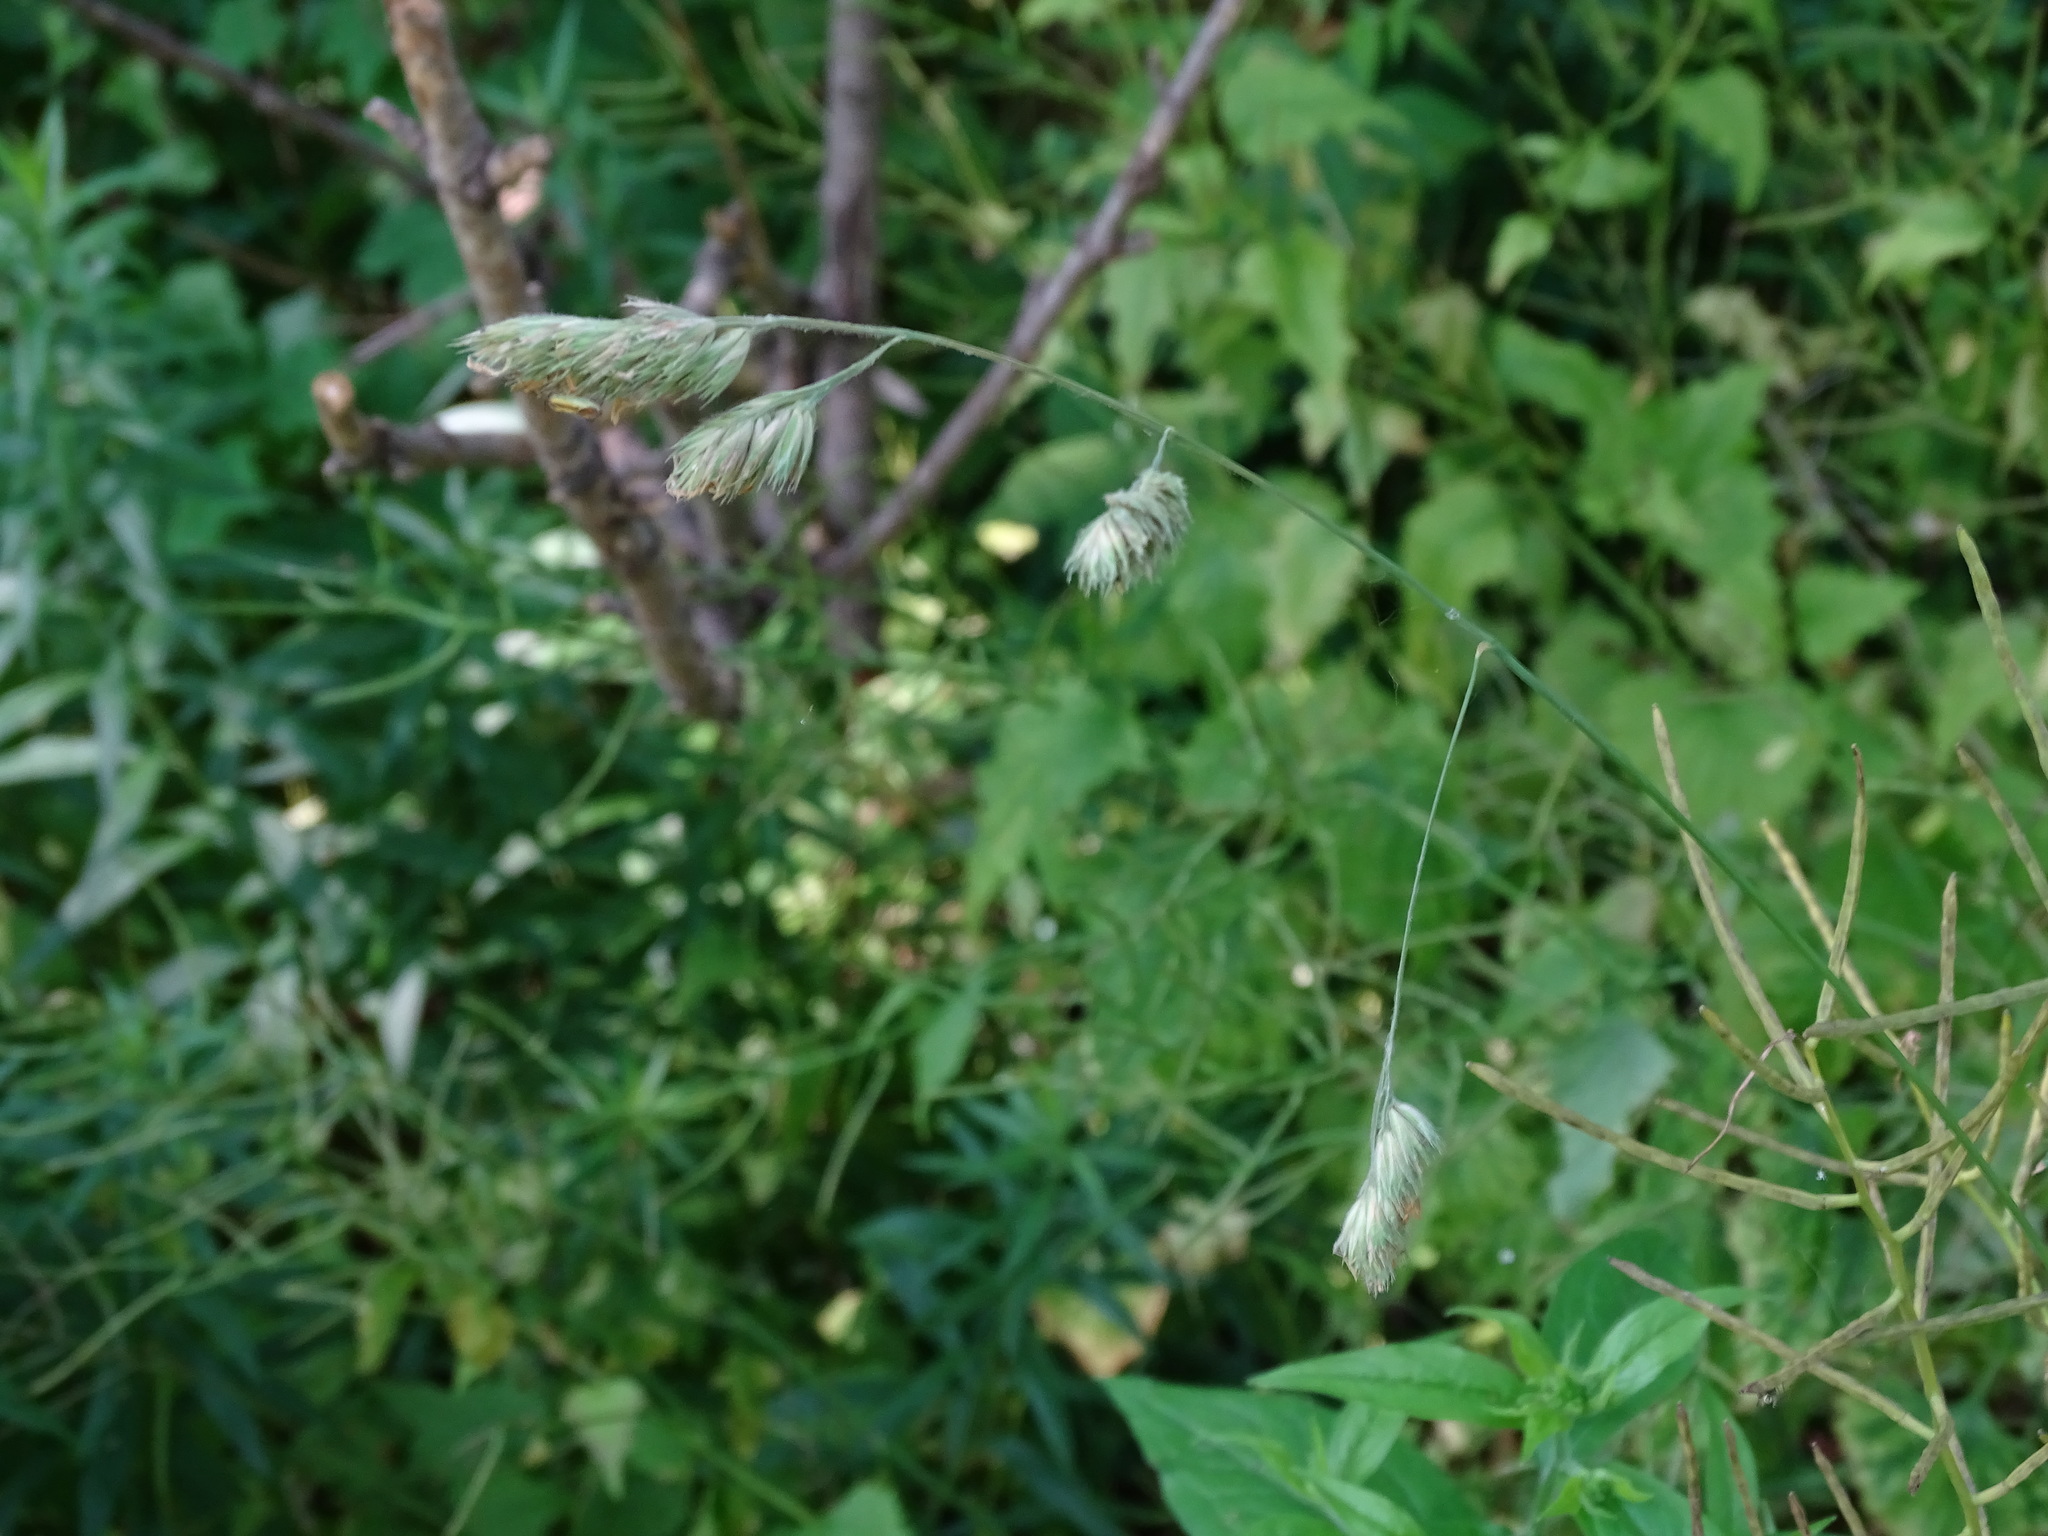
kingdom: Plantae
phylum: Tracheophyta
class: Liliopsida
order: Poales
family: Poaceae
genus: Dactylis
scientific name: Dactylis glomerata
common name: Orchardgrass
